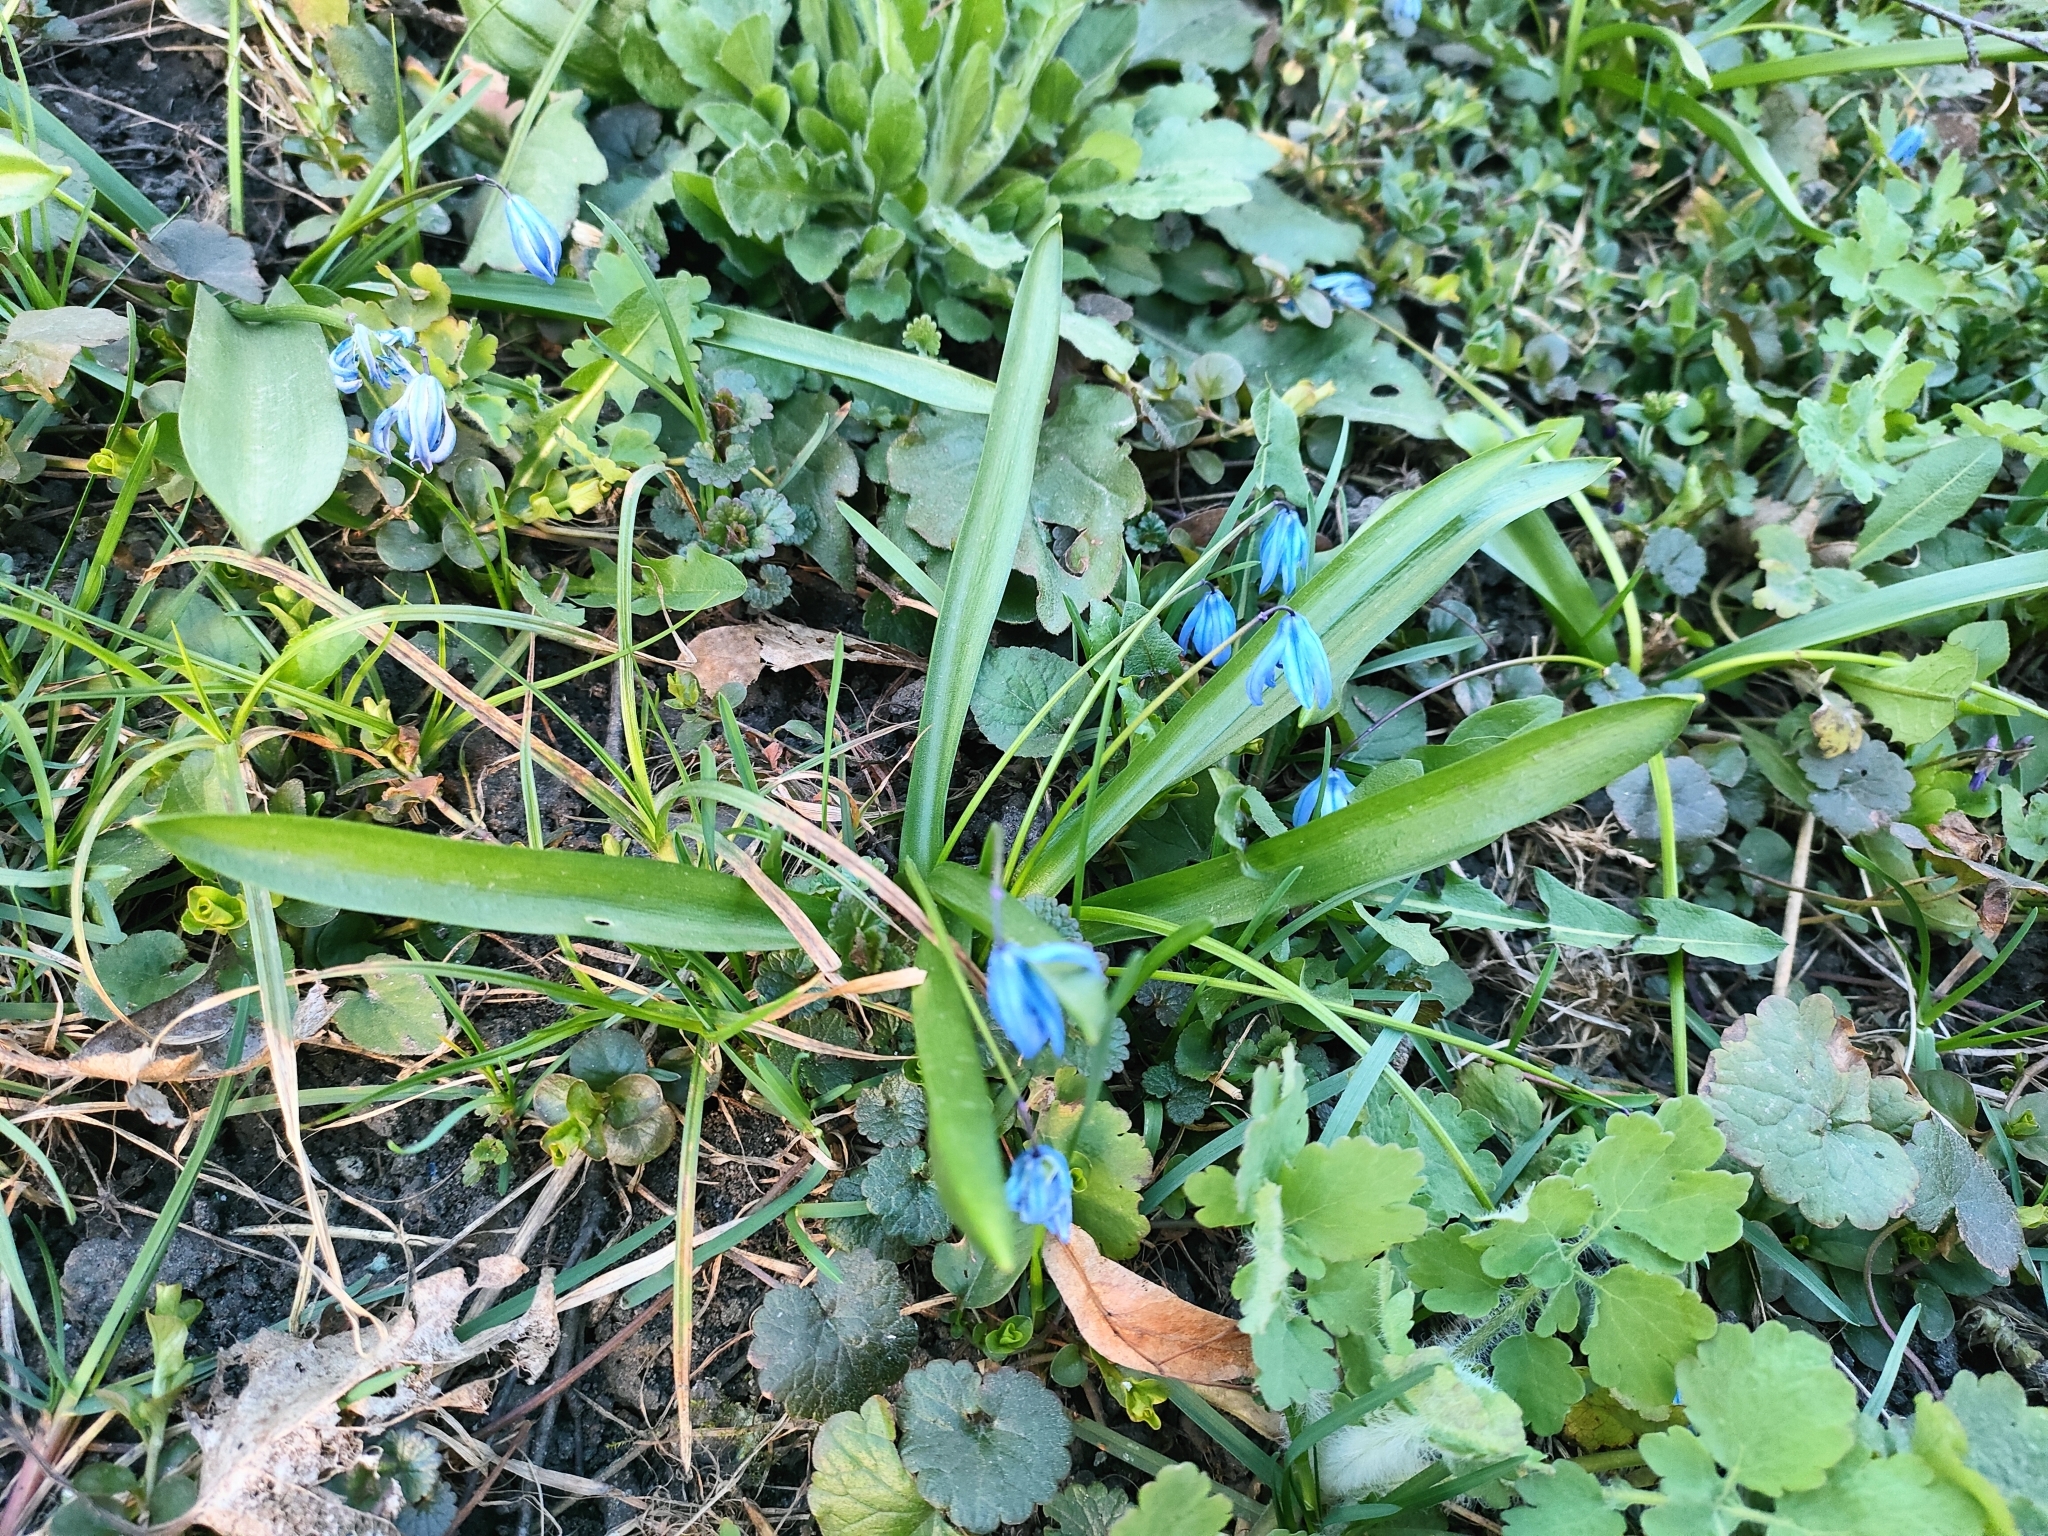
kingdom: Plantae
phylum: Tracheophyta
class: Liliopsida
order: Asparagales
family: Asparagaceae
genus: Scilla
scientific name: Scilla siberica
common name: Siberian squill
